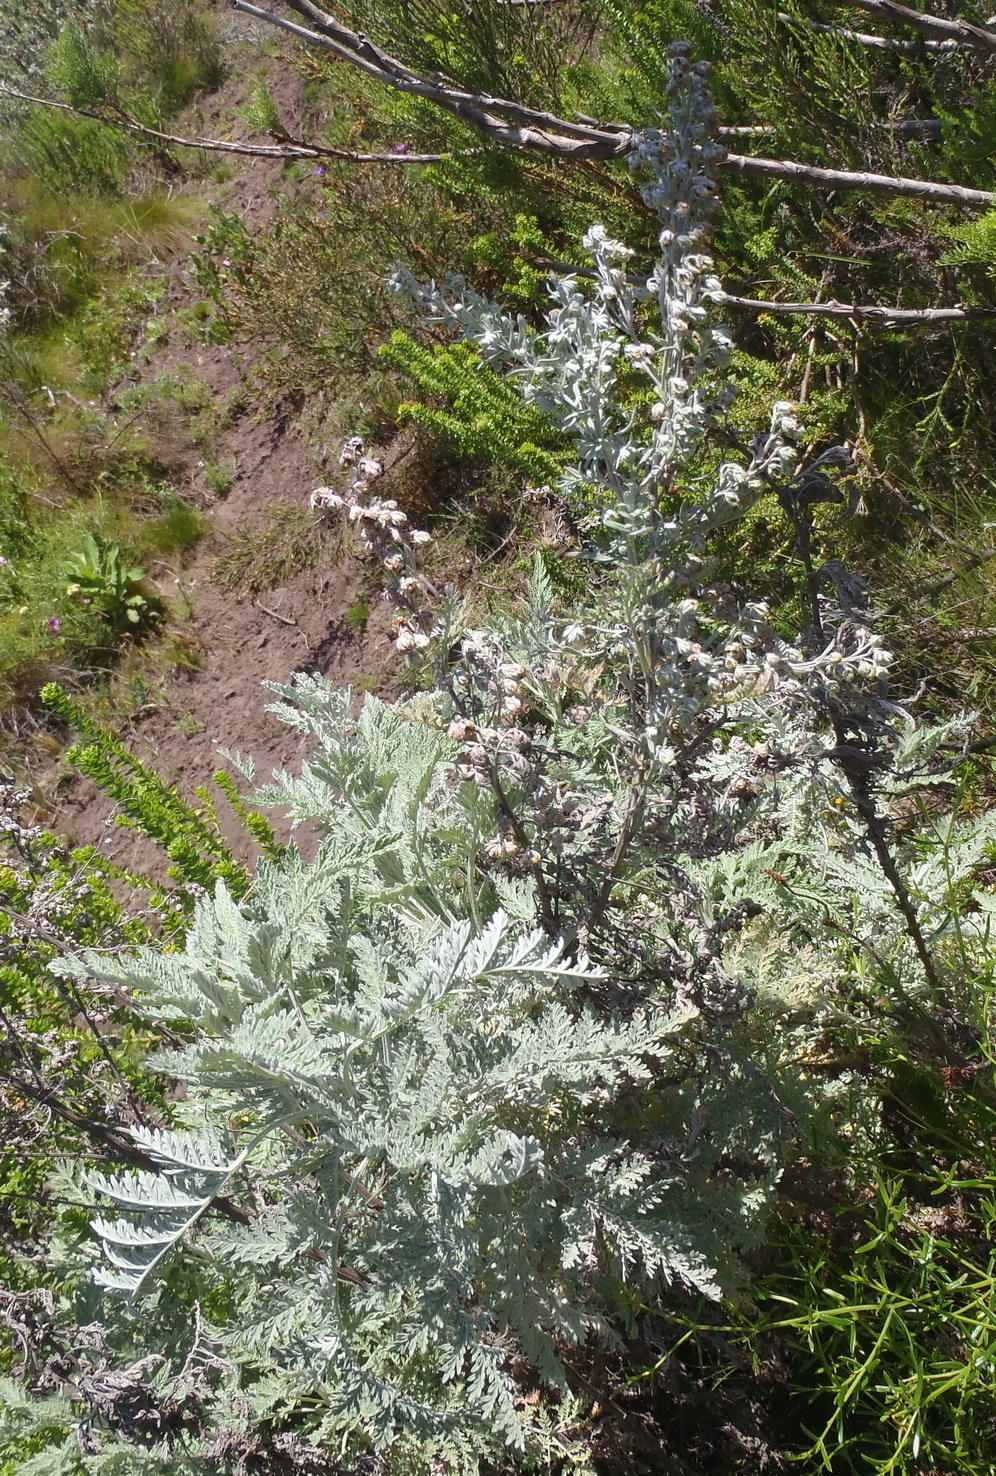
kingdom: Plantae
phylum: Tracheophyta
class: Magnoliopsida
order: Asterales
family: Asteraceae
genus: Artemisia
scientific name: Artemisia afra
